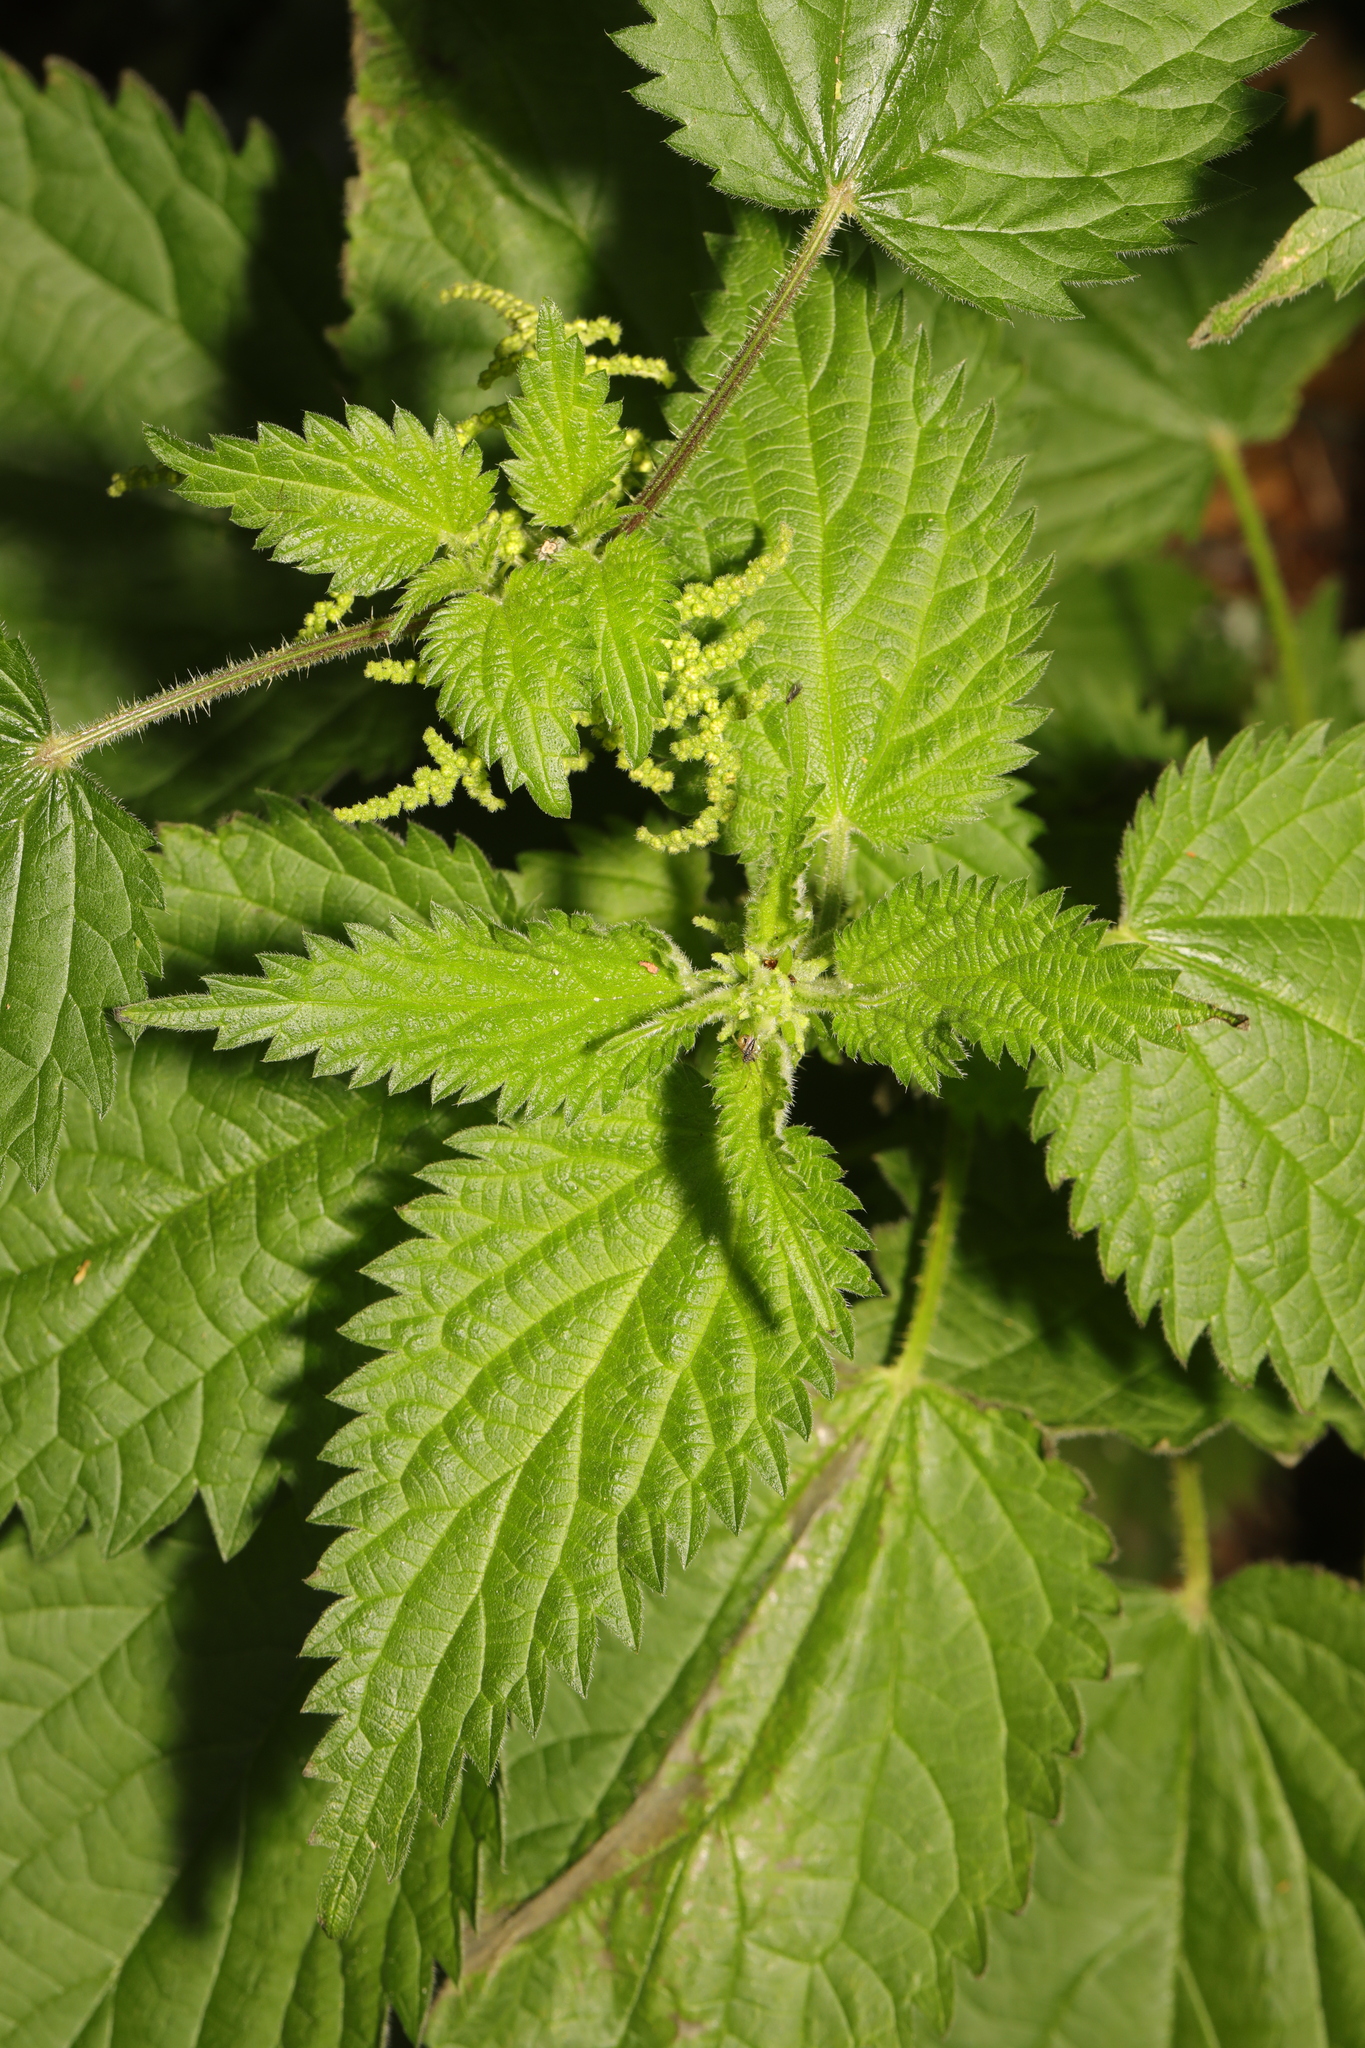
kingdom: Plantae
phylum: Tracheophyta
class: Magnoliopsida
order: Rosales
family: Urticaceae
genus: Urtica
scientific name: Urtica dioica
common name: Common nettle
